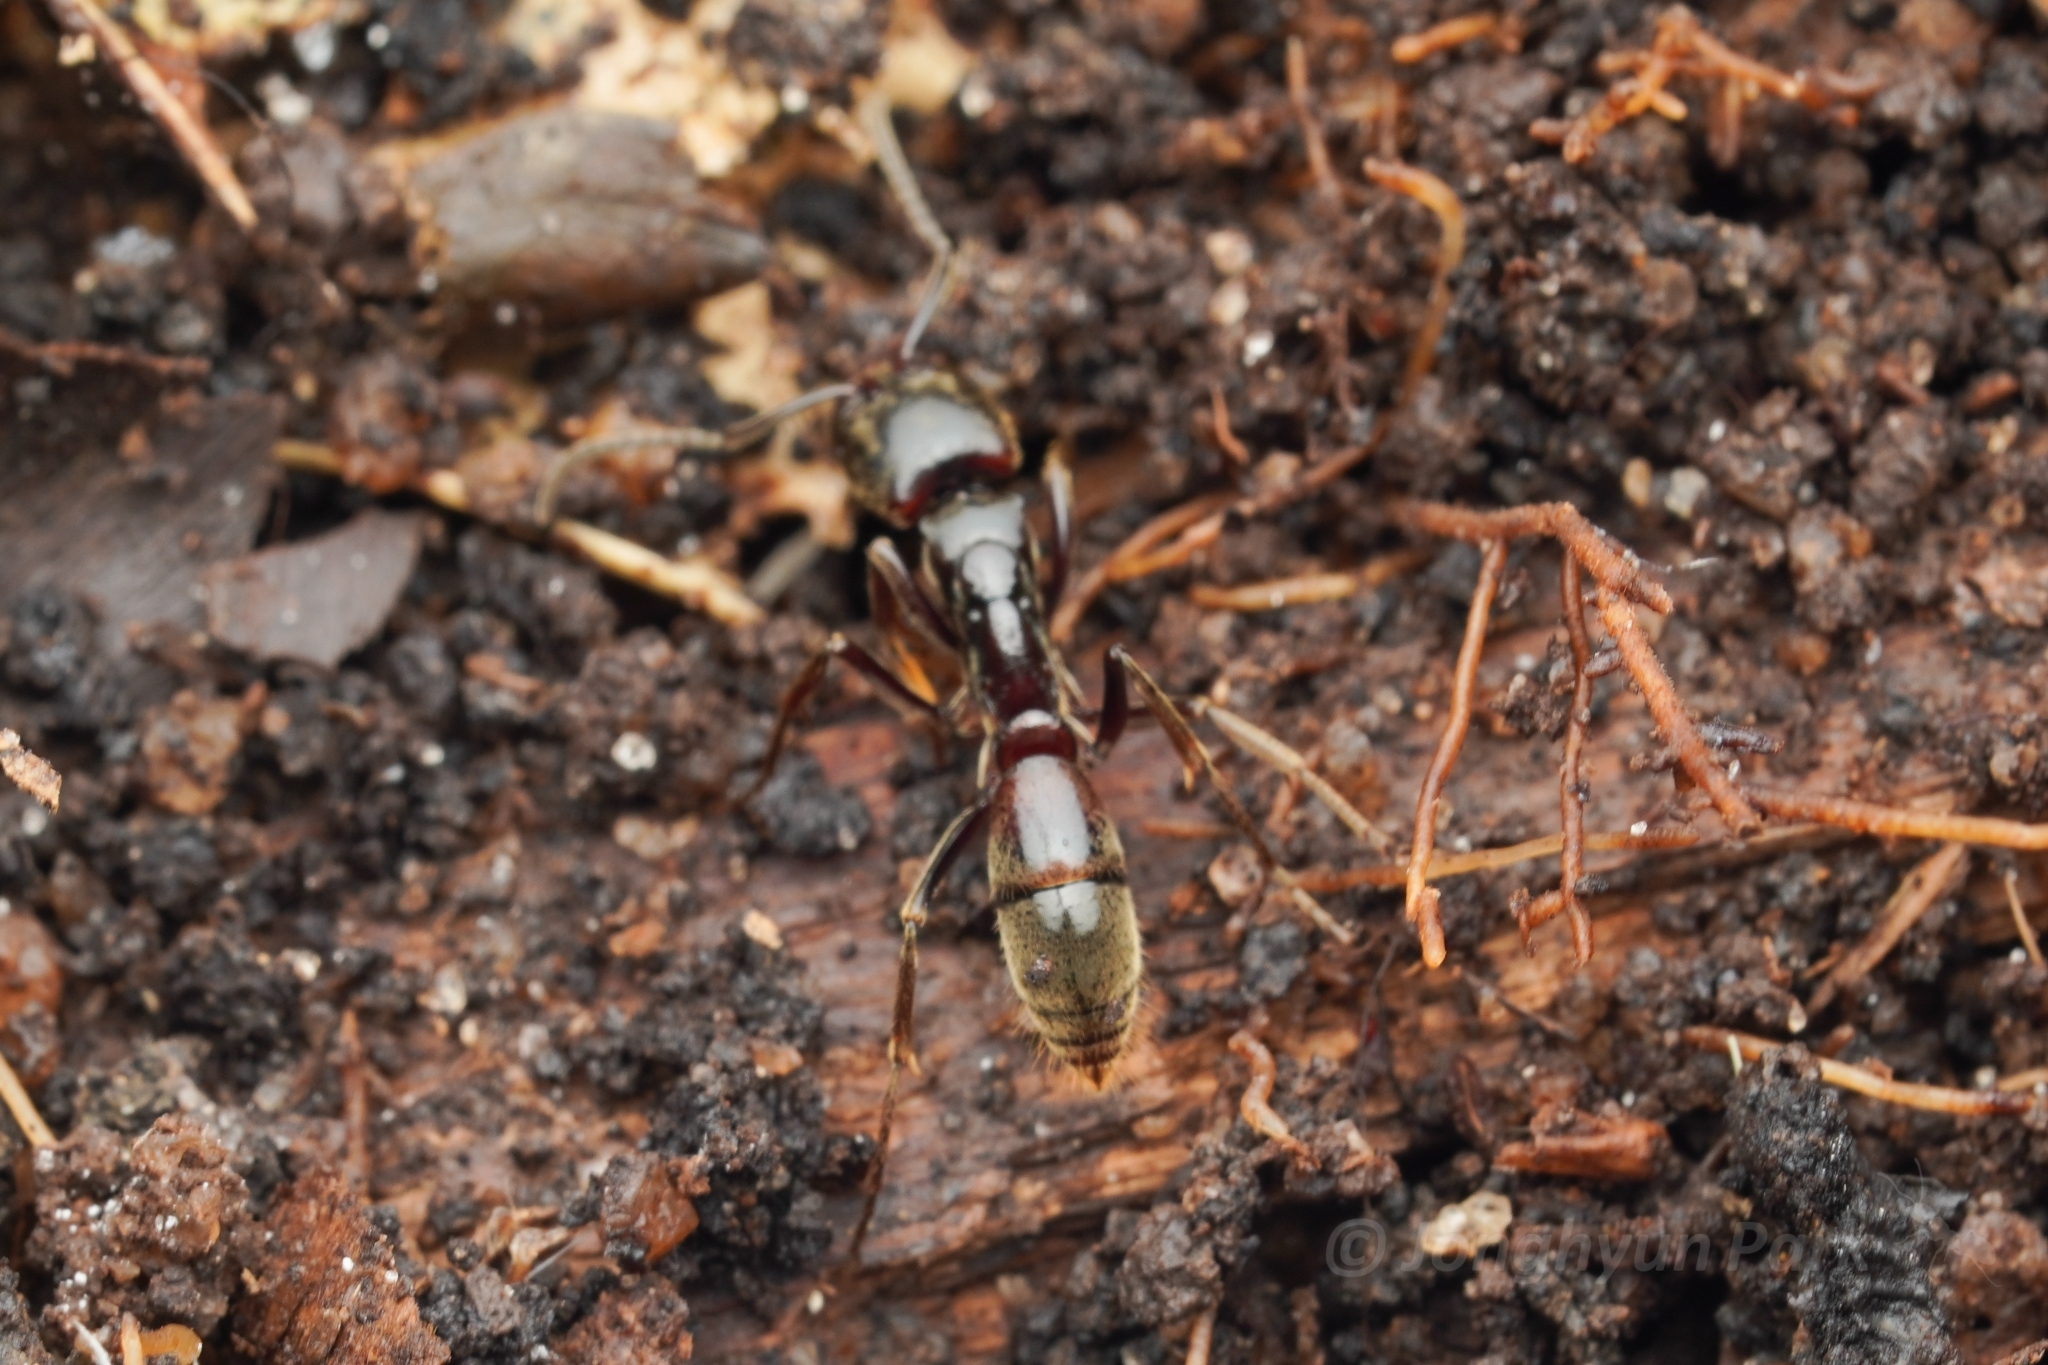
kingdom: Animalia
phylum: Arthropoda
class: Insecta
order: Hymenoptera
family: Formicidae
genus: Pachycondyla
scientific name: Pachycondyla procidua
